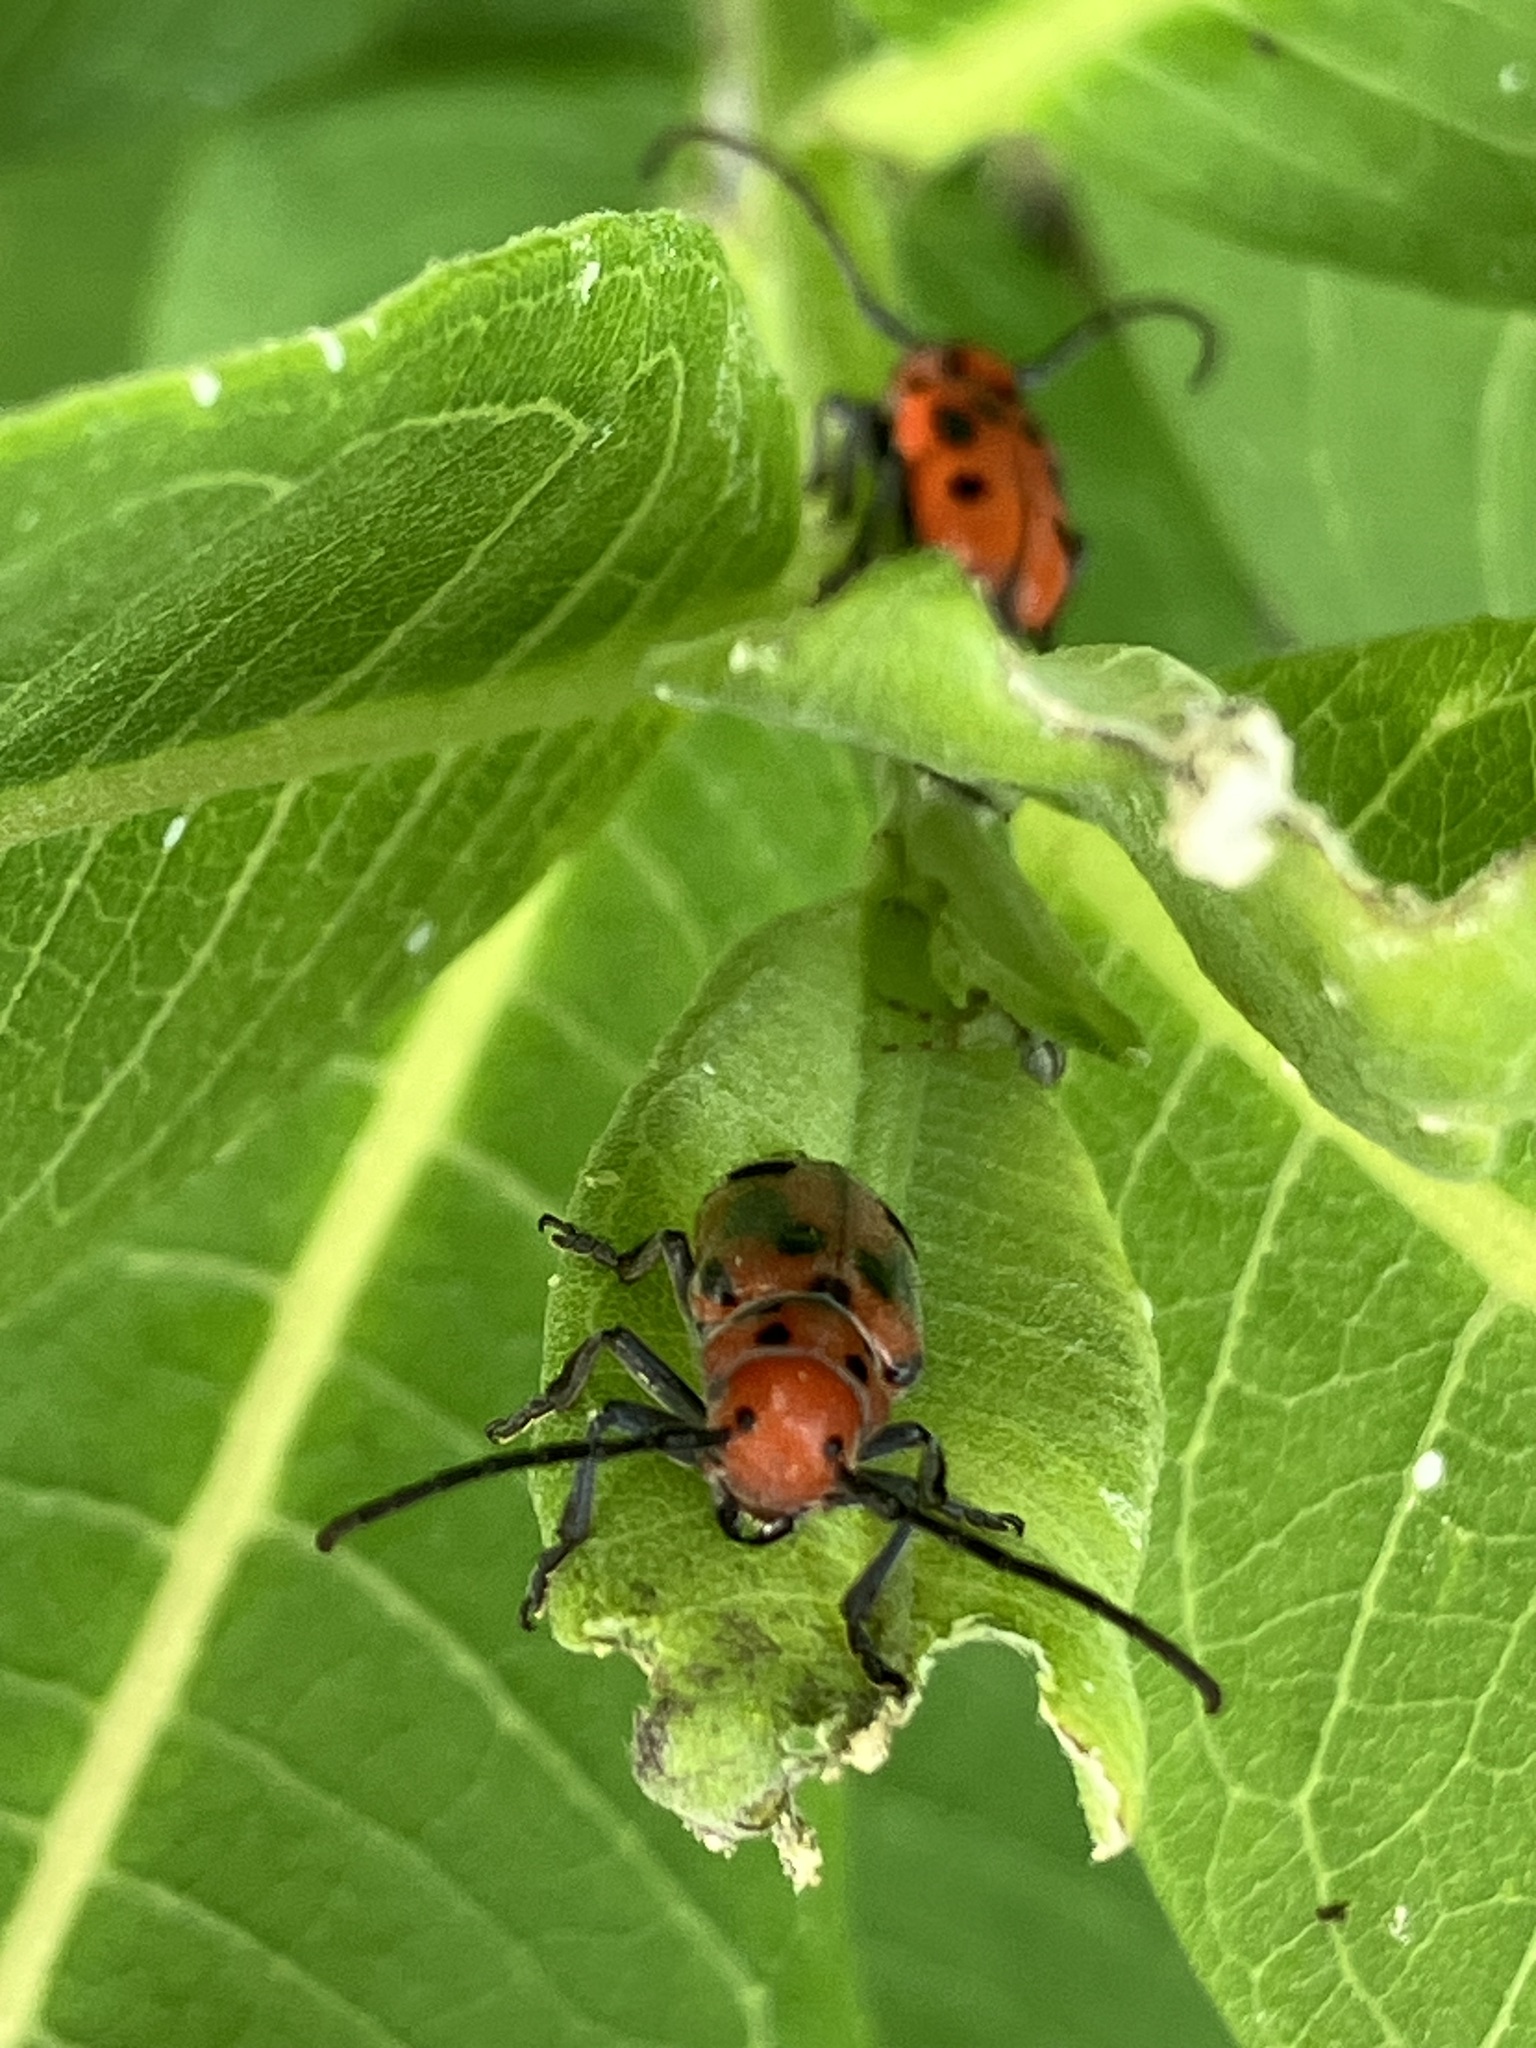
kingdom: Animalia
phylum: Arthropoda
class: Insecta
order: Coleoptera
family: Cerambycidae
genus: Tetraopes
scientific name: Tetraopes tetrophthalmus
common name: Red milkweed beetle
